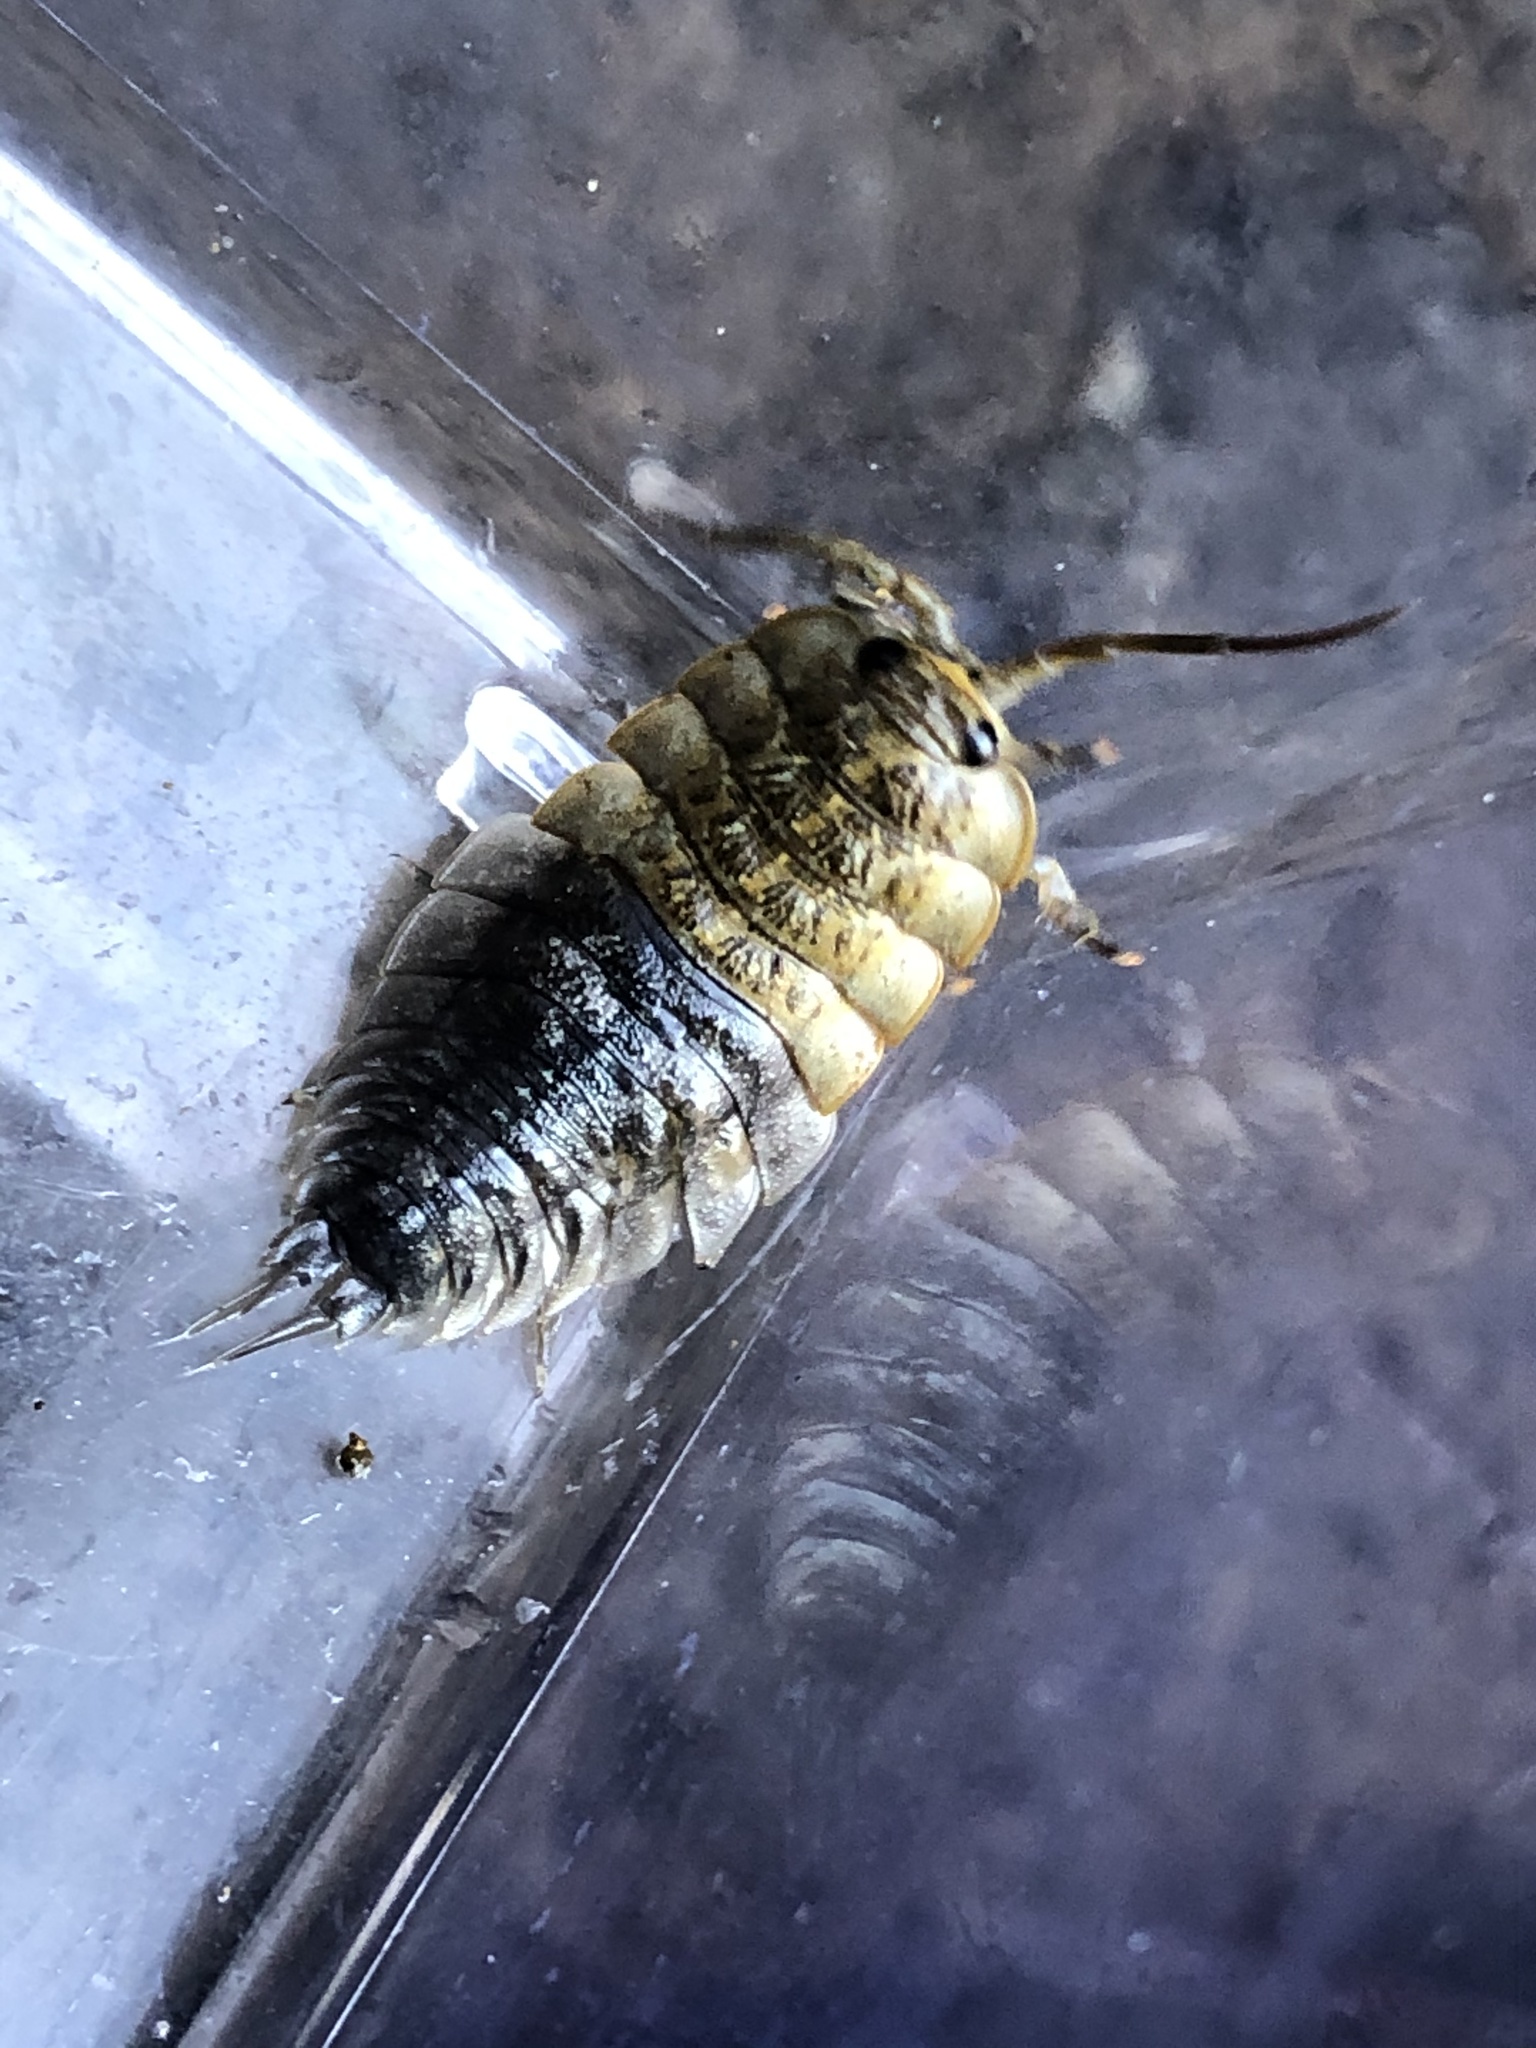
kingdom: Animalia
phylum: Arthropoda
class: Malacostraca
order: Isopoda
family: Ligiidae
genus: Ligia
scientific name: Ligia pallasii
